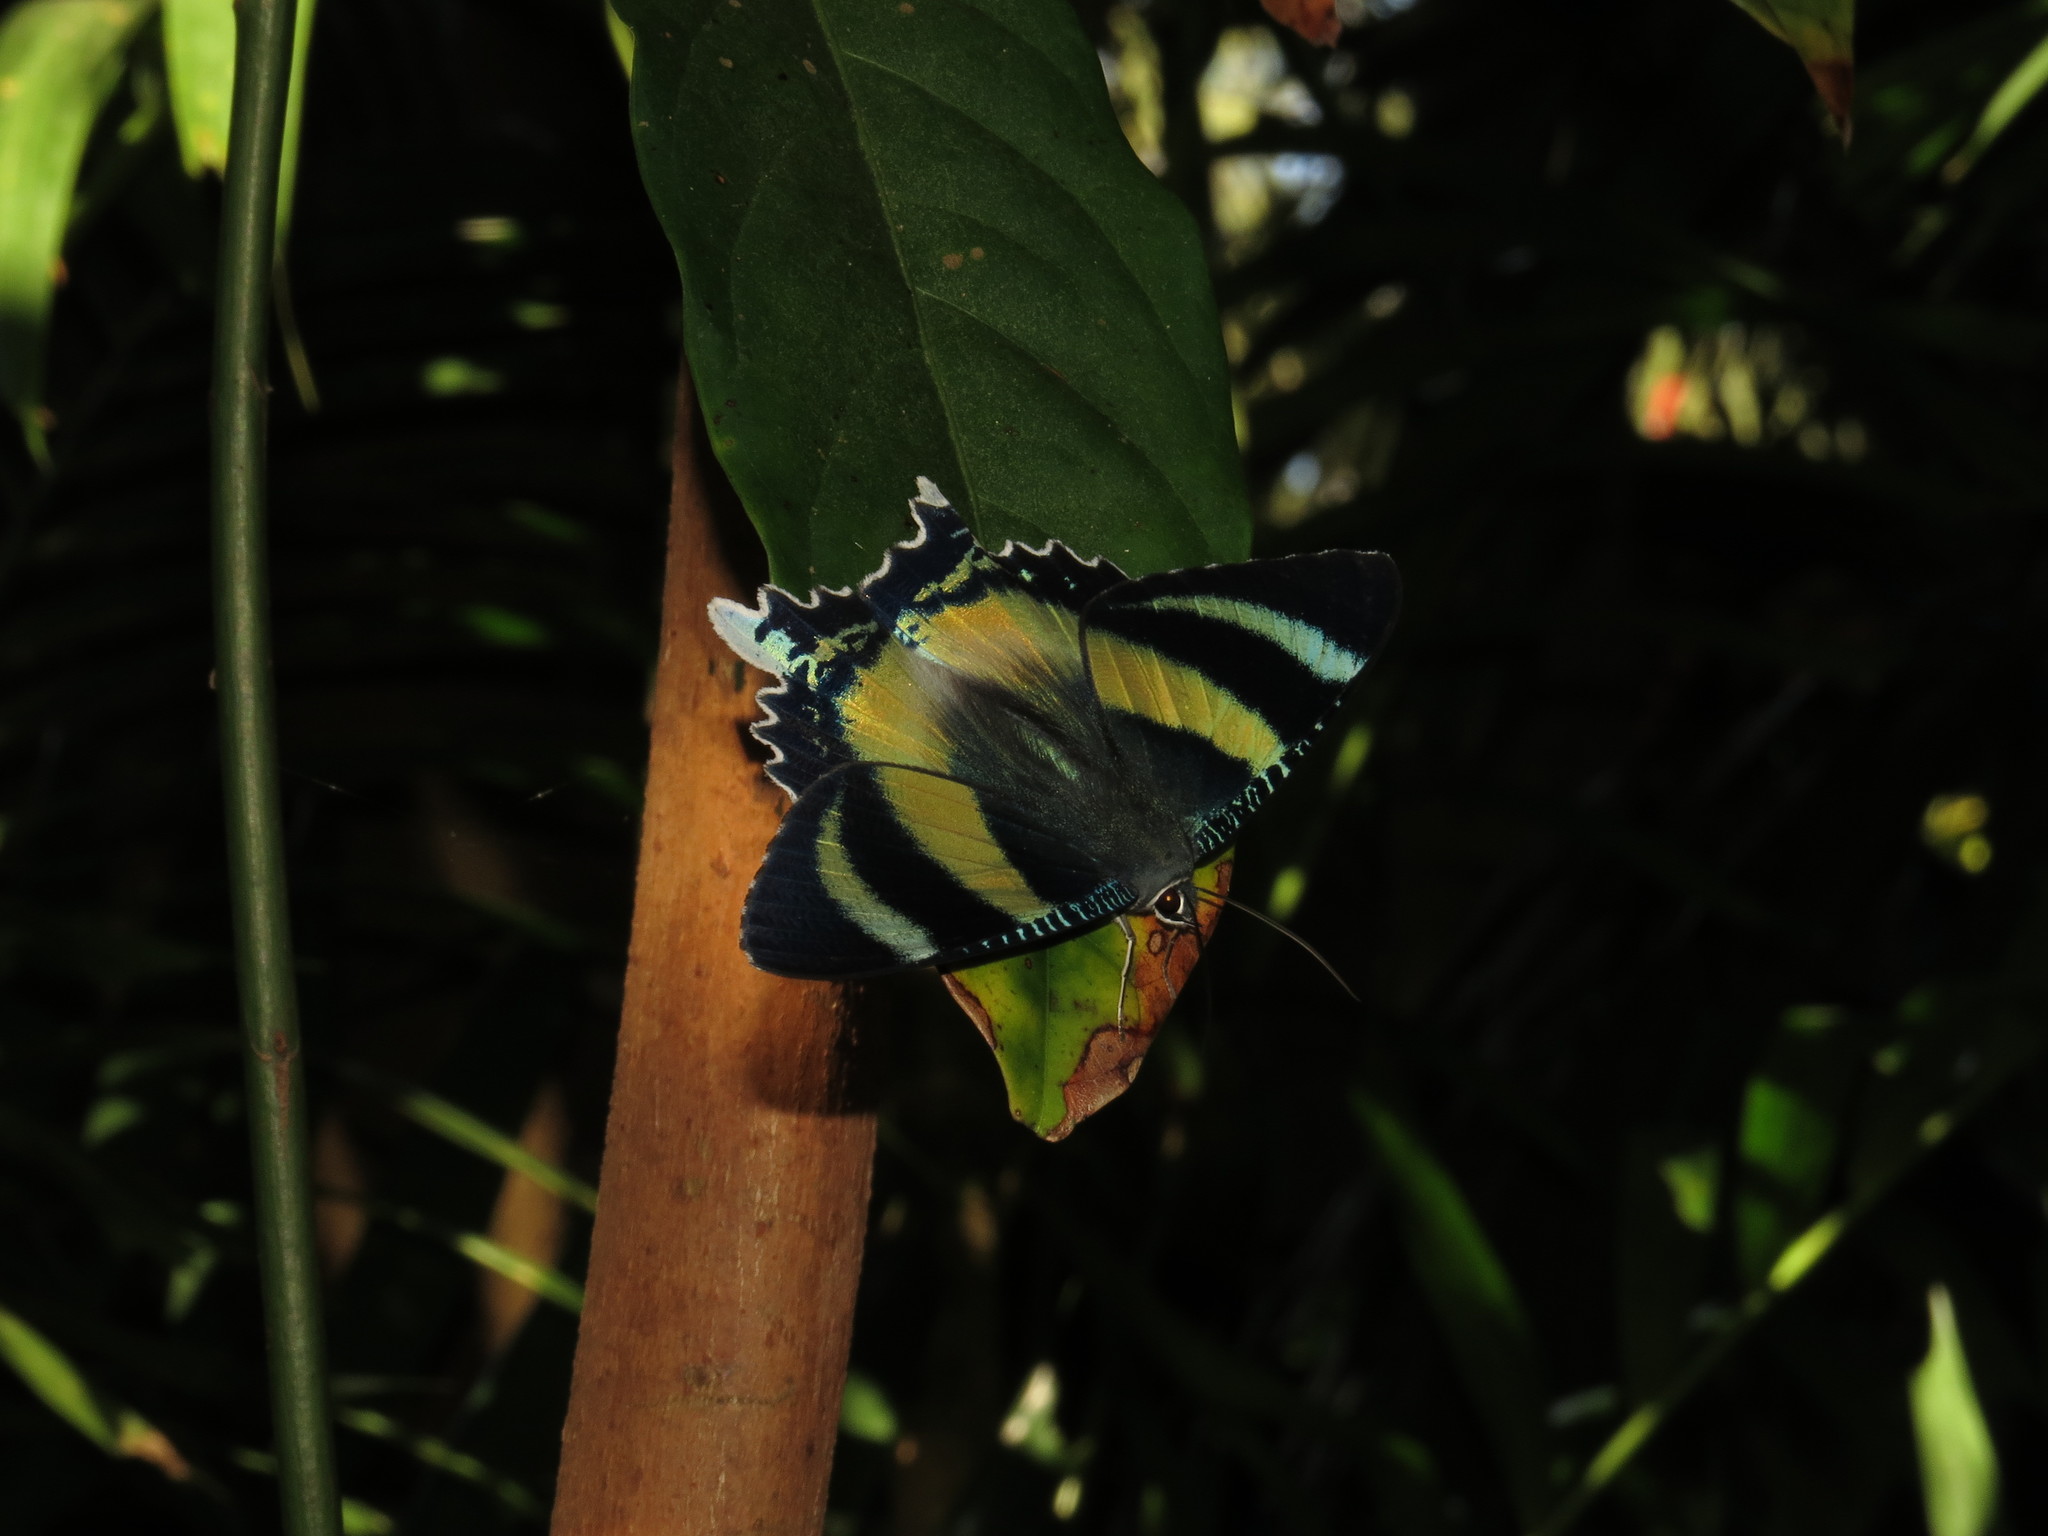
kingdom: Animalia
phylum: Arthropoda
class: Insecta
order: Lepidoptera
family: Uraniidae
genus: Alcides
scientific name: Alcides metaurus
